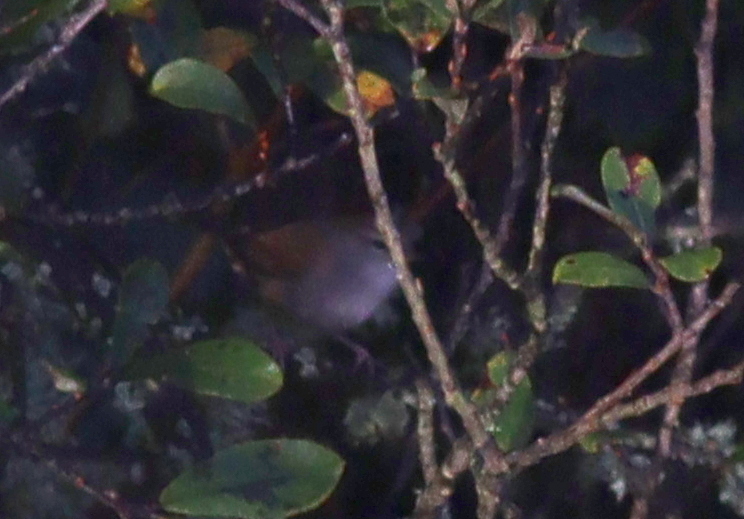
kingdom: Animalia
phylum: Chordata
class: Aves
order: Passeriformes
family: Cettiidae
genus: Cettia
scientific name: Cettia cetti
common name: Cetti's warbler
